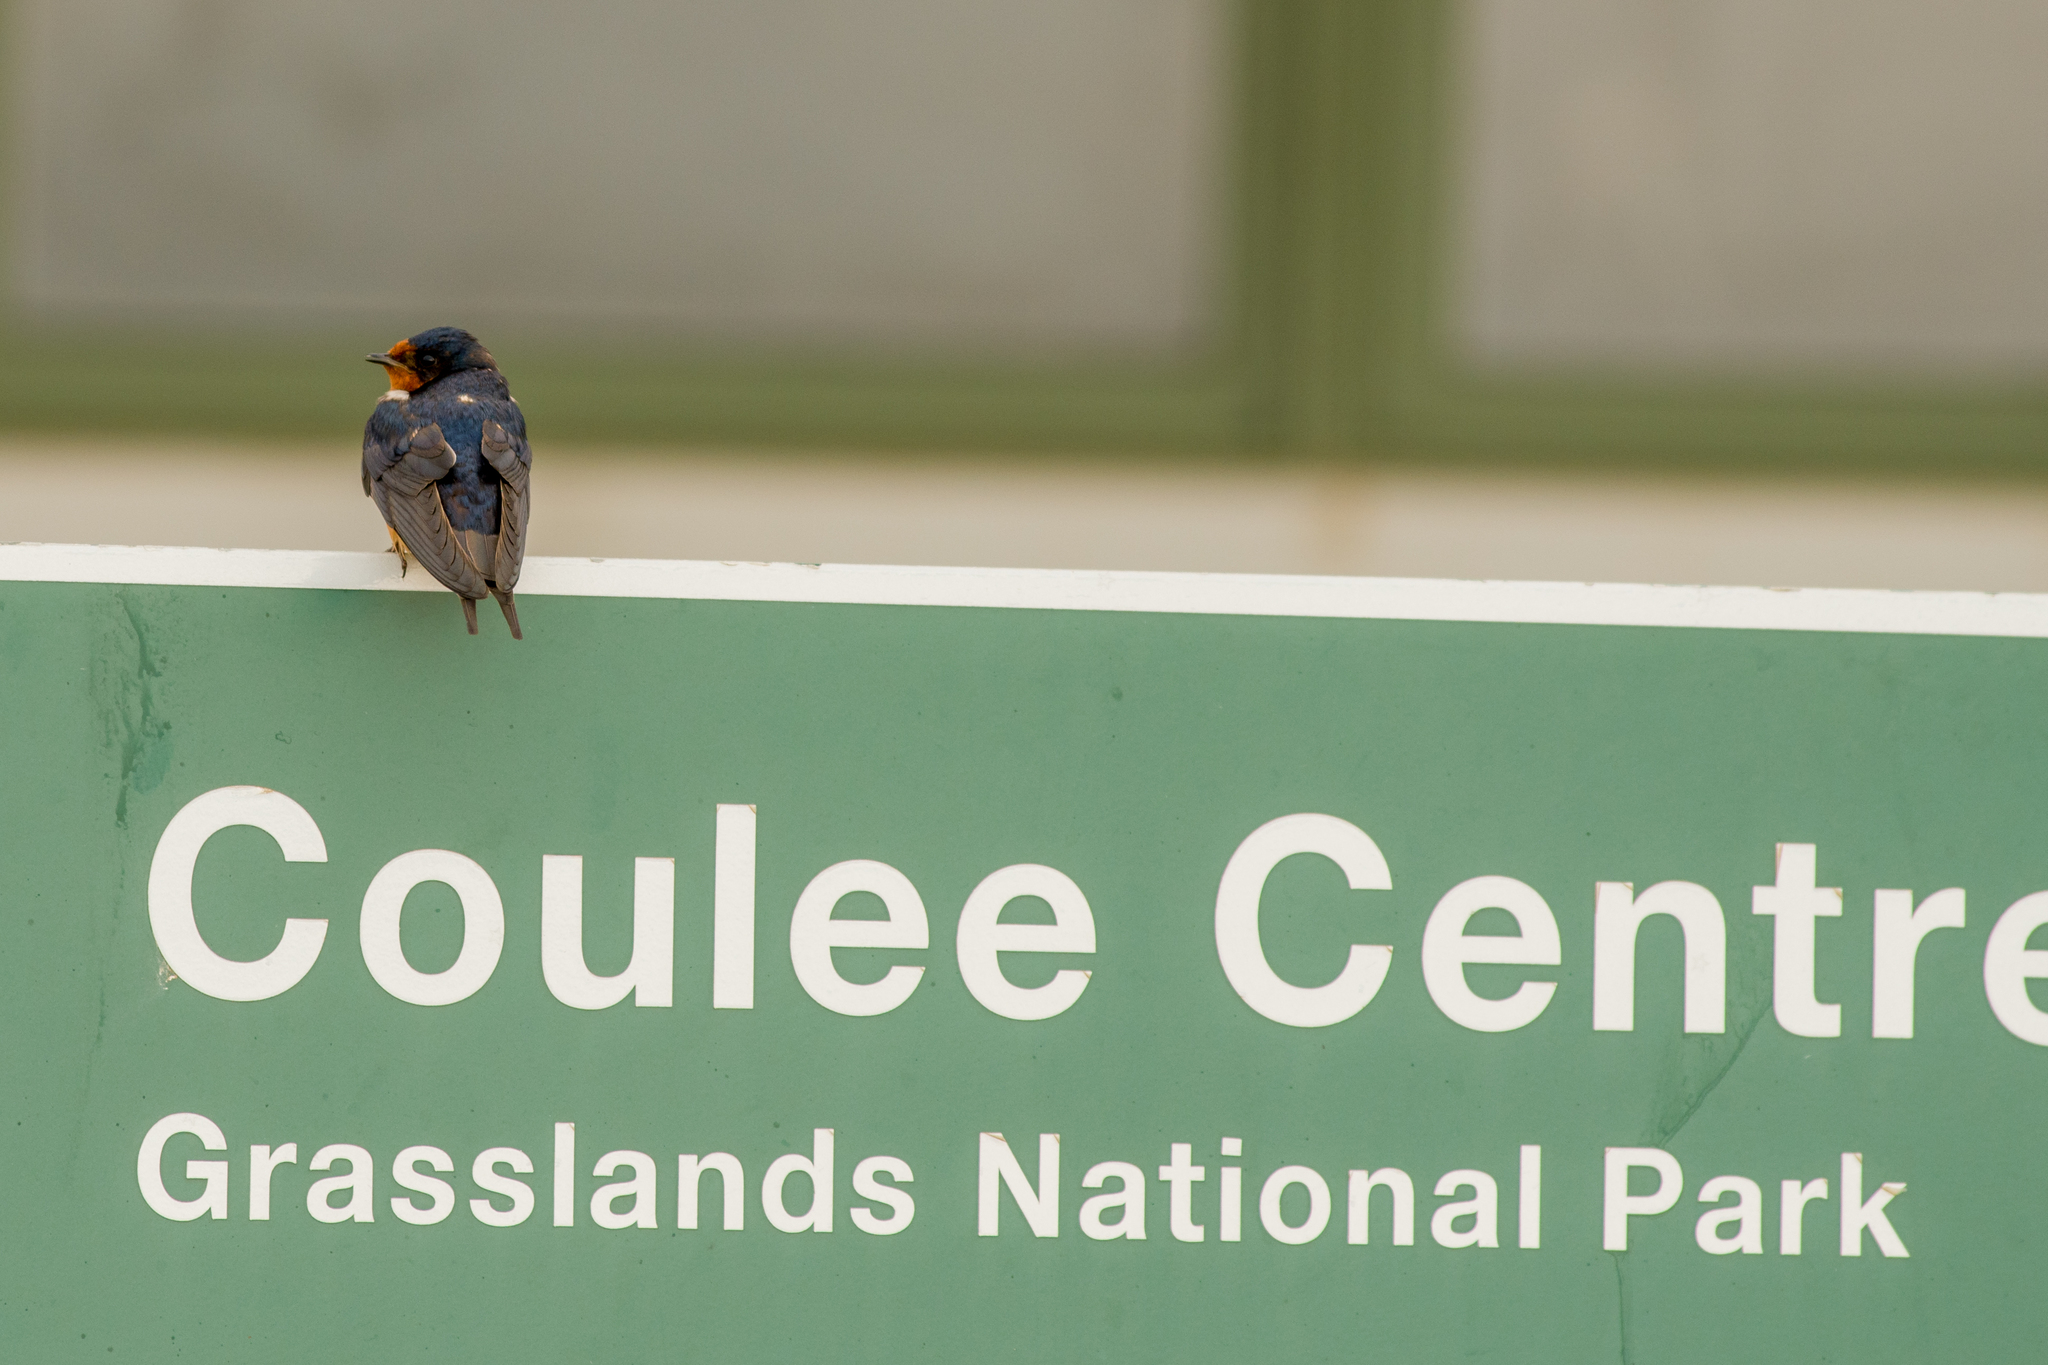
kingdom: Animalia
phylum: Chordata
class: Aves
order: Passeriformes
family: Hirundinidae
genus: Hirundo
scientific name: Hirundo rustica
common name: Barn swallow
